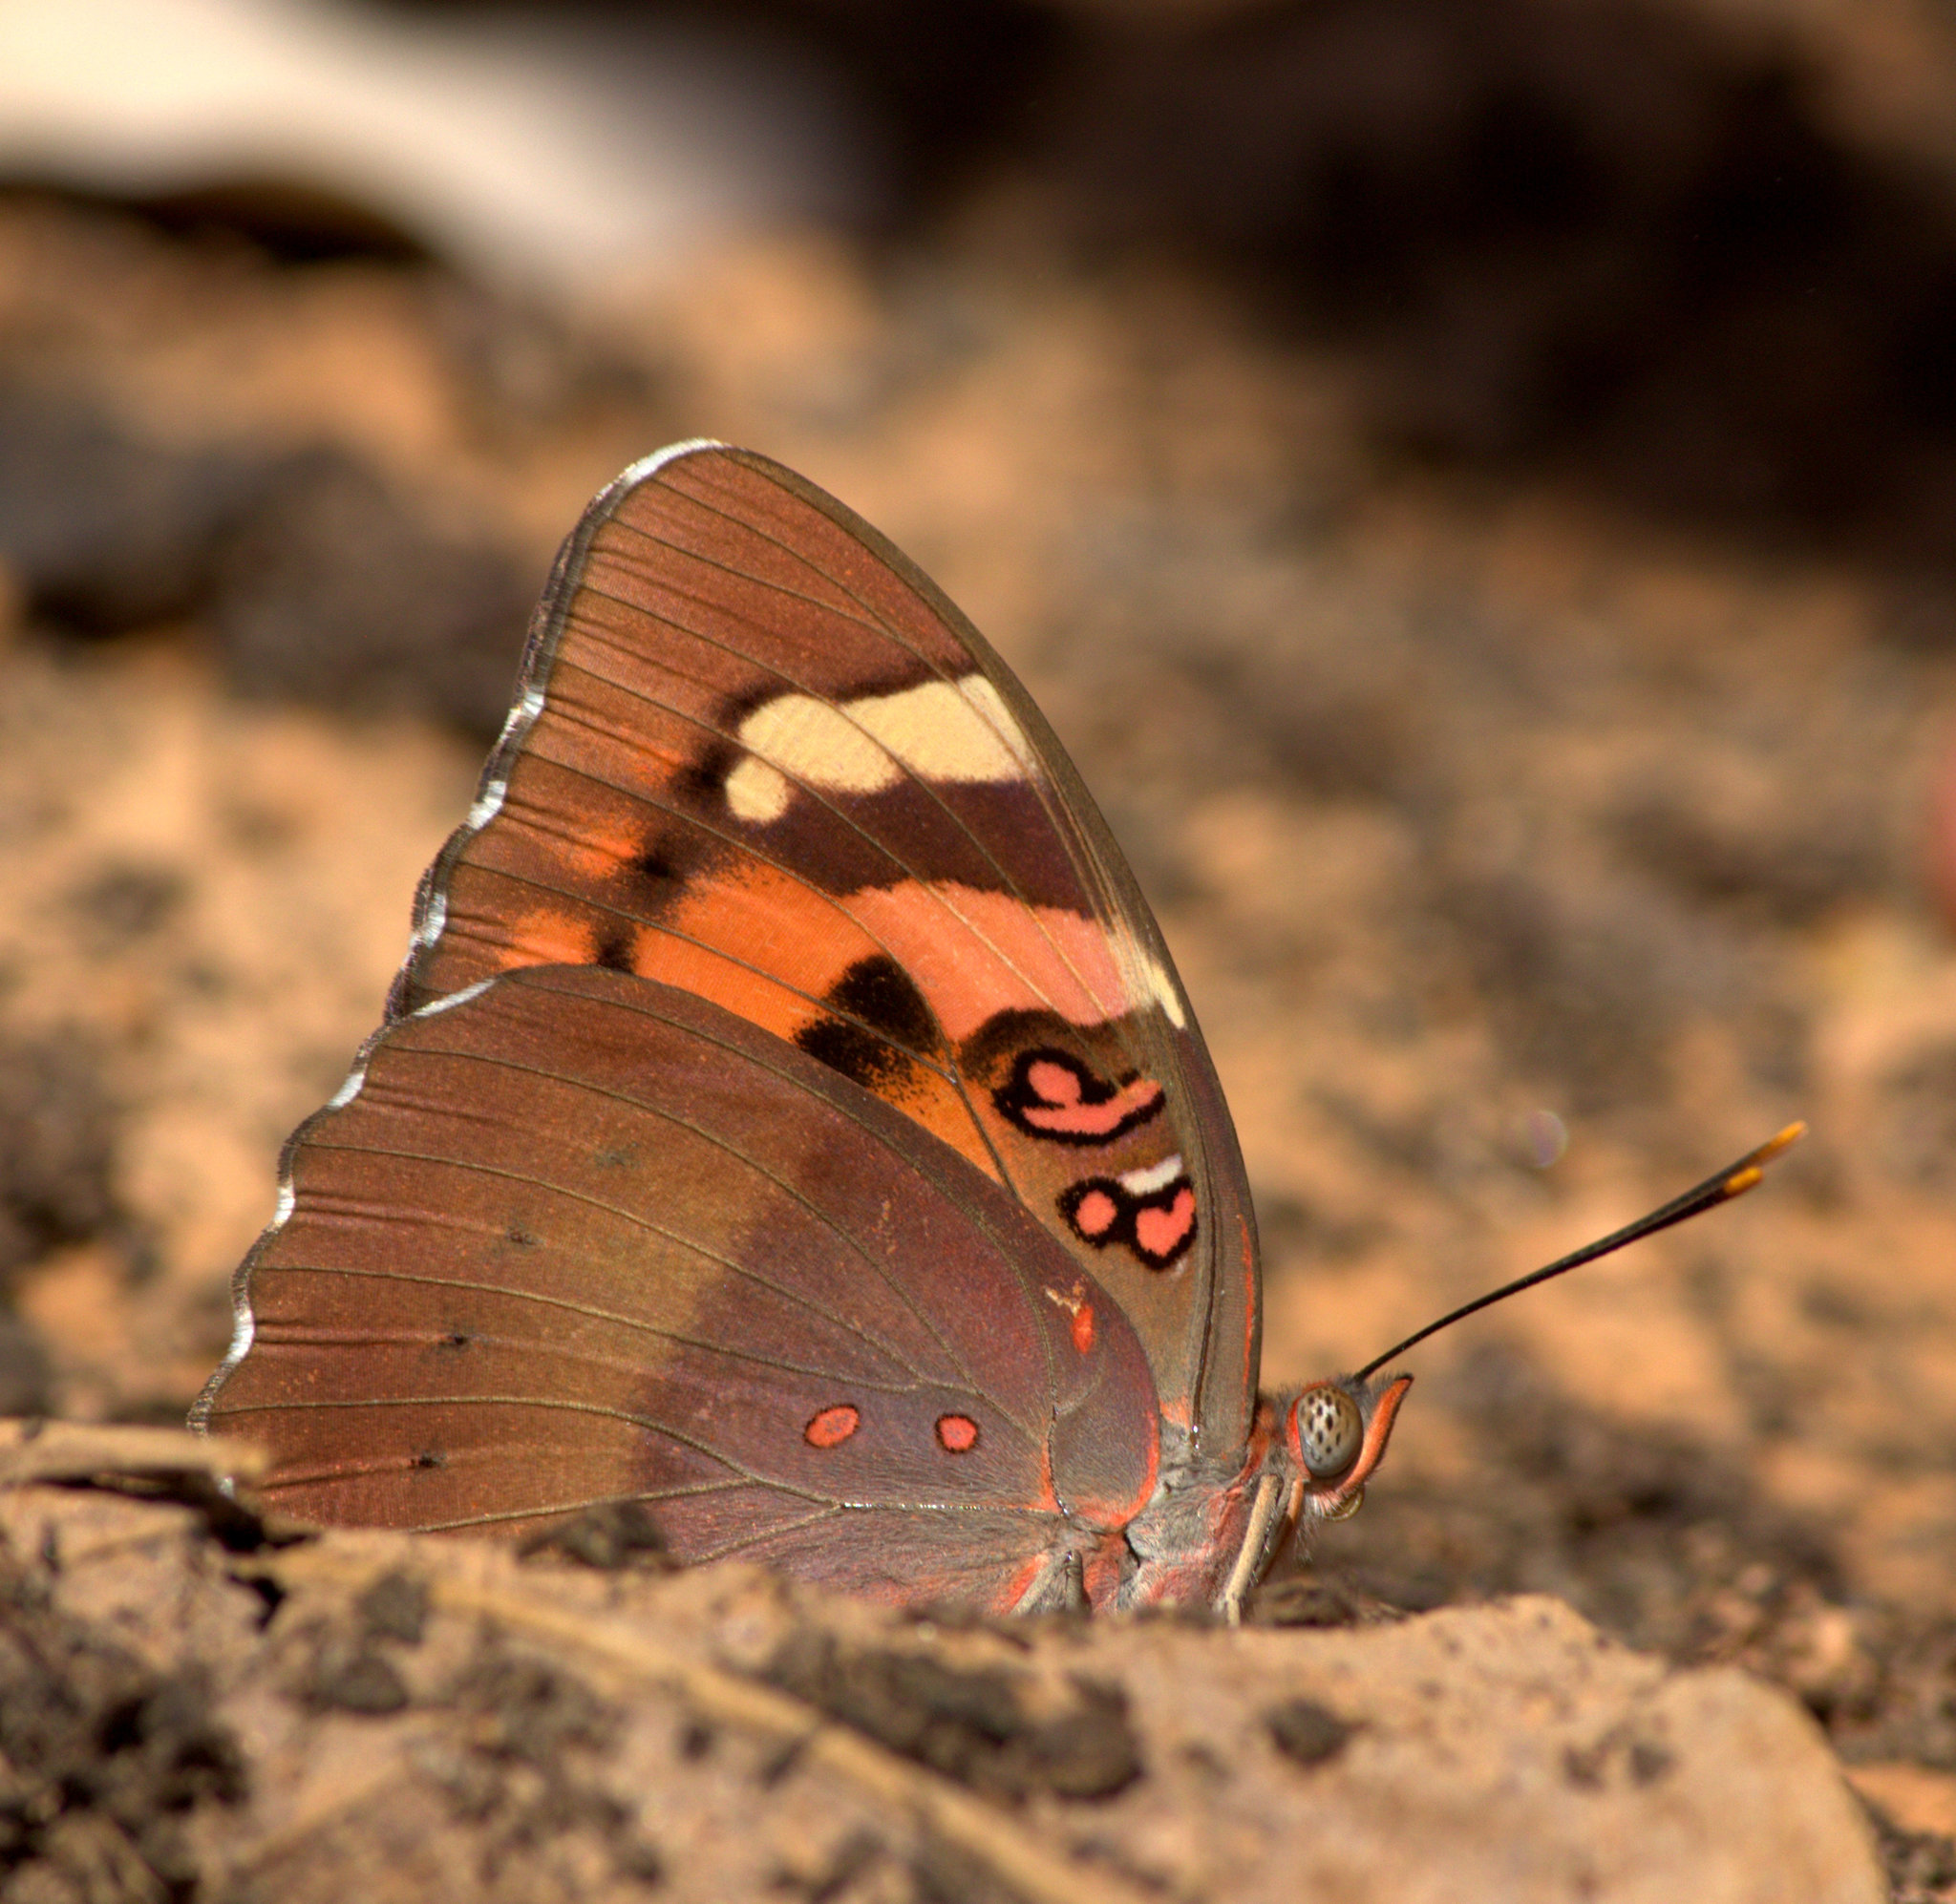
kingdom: Animalia
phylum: Arthropoda
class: Insecta
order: Lepidoptera
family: Nymphalidae
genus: Euthalia
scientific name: Euthalia nais
